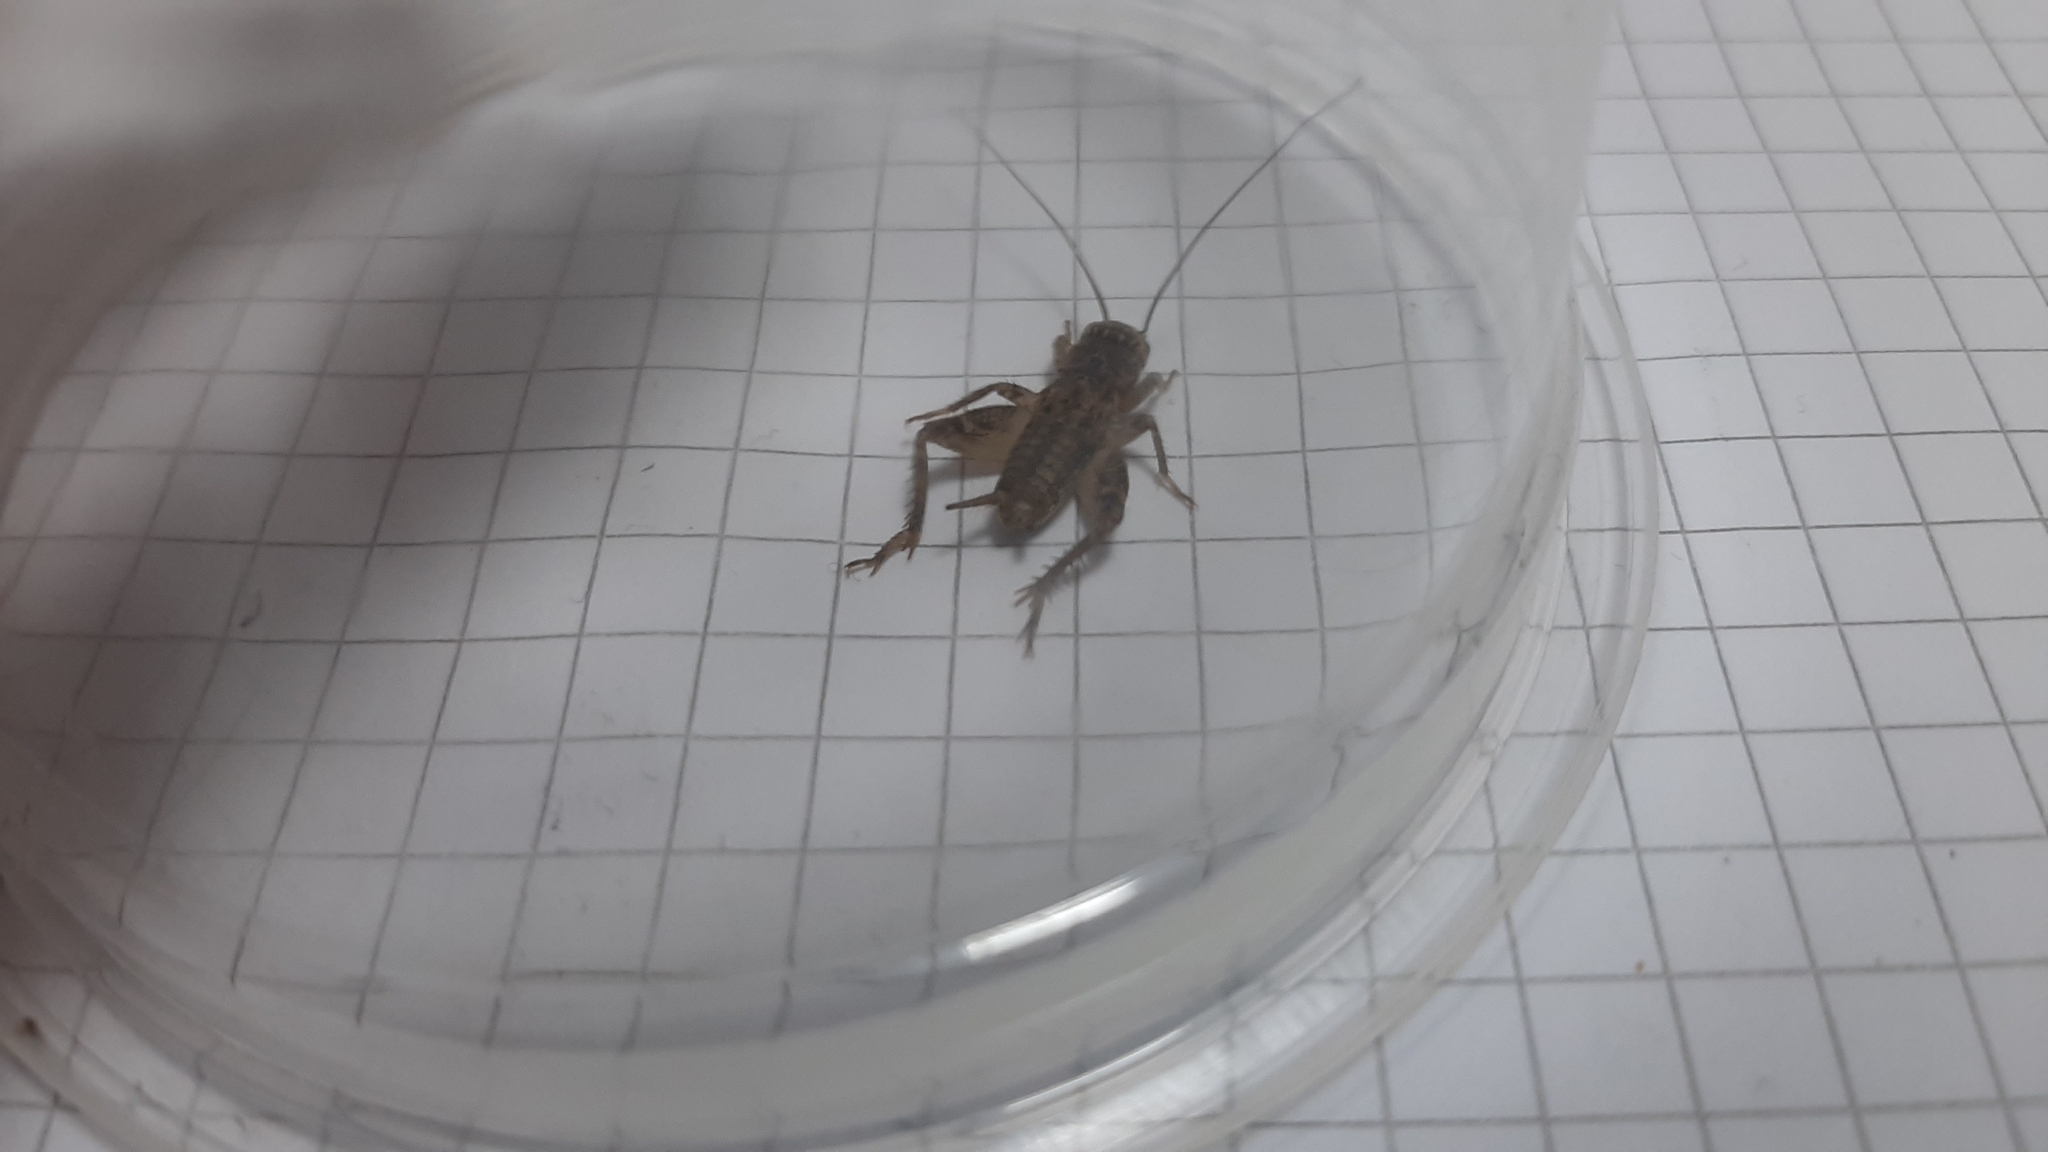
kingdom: Animalia
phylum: Arthropoda
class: Insecta
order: Orthoptera
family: Gryllidae
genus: Eumodicogryllus
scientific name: Eumodicogryllus bordigalensis
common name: Bordeaux cricket
